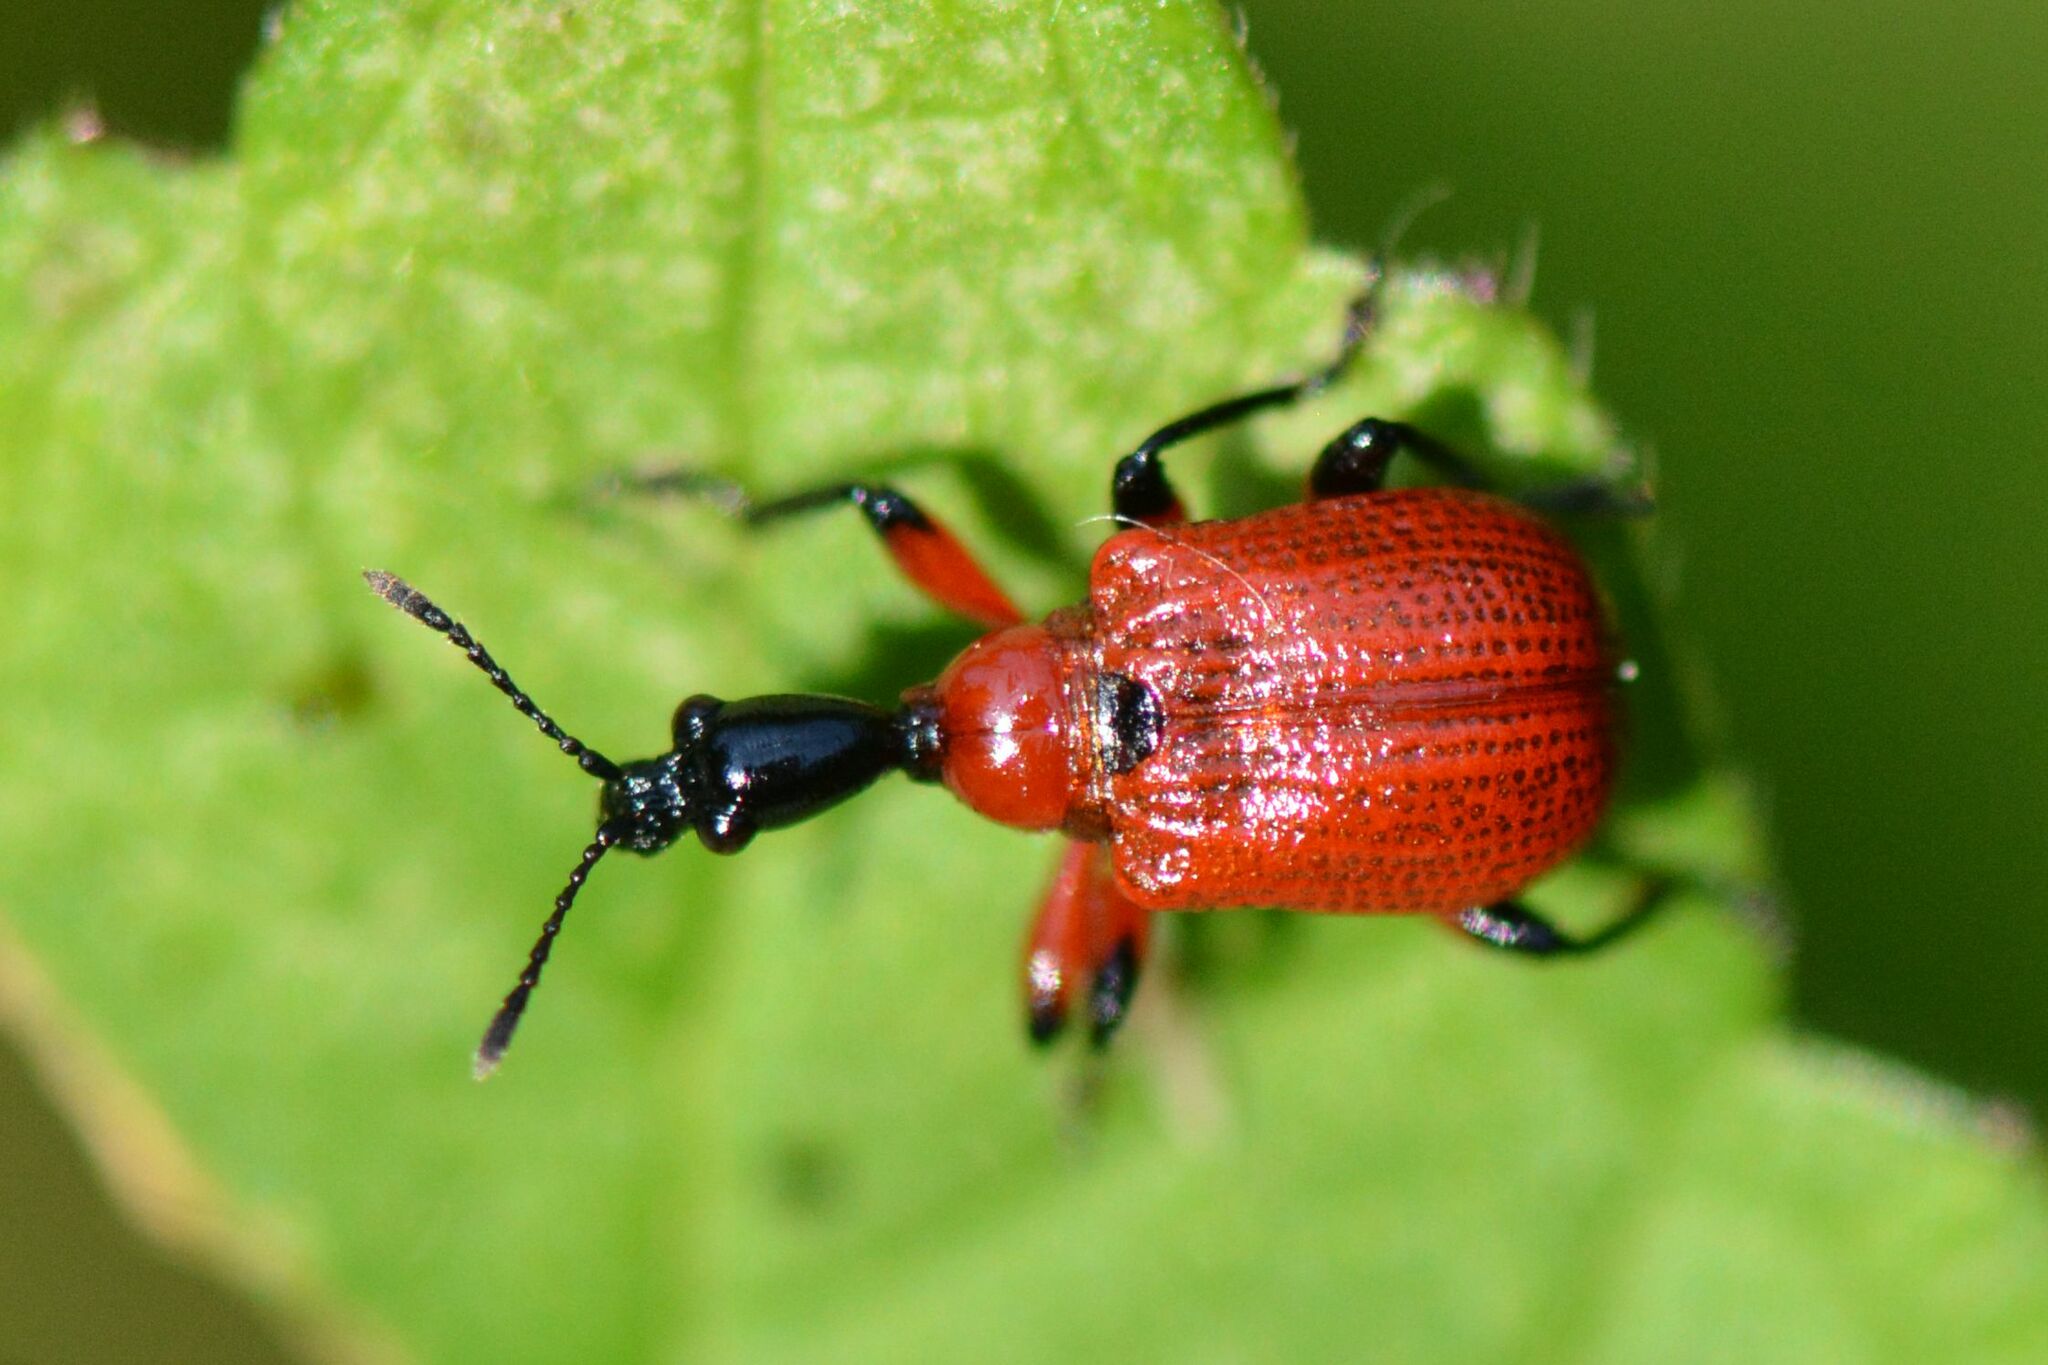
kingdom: Animalia
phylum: Arthropoda
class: Insecta
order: Coleoptera
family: Attelabidae
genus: Apoderus
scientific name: Apoderus coryli
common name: Hazel leaf roller
